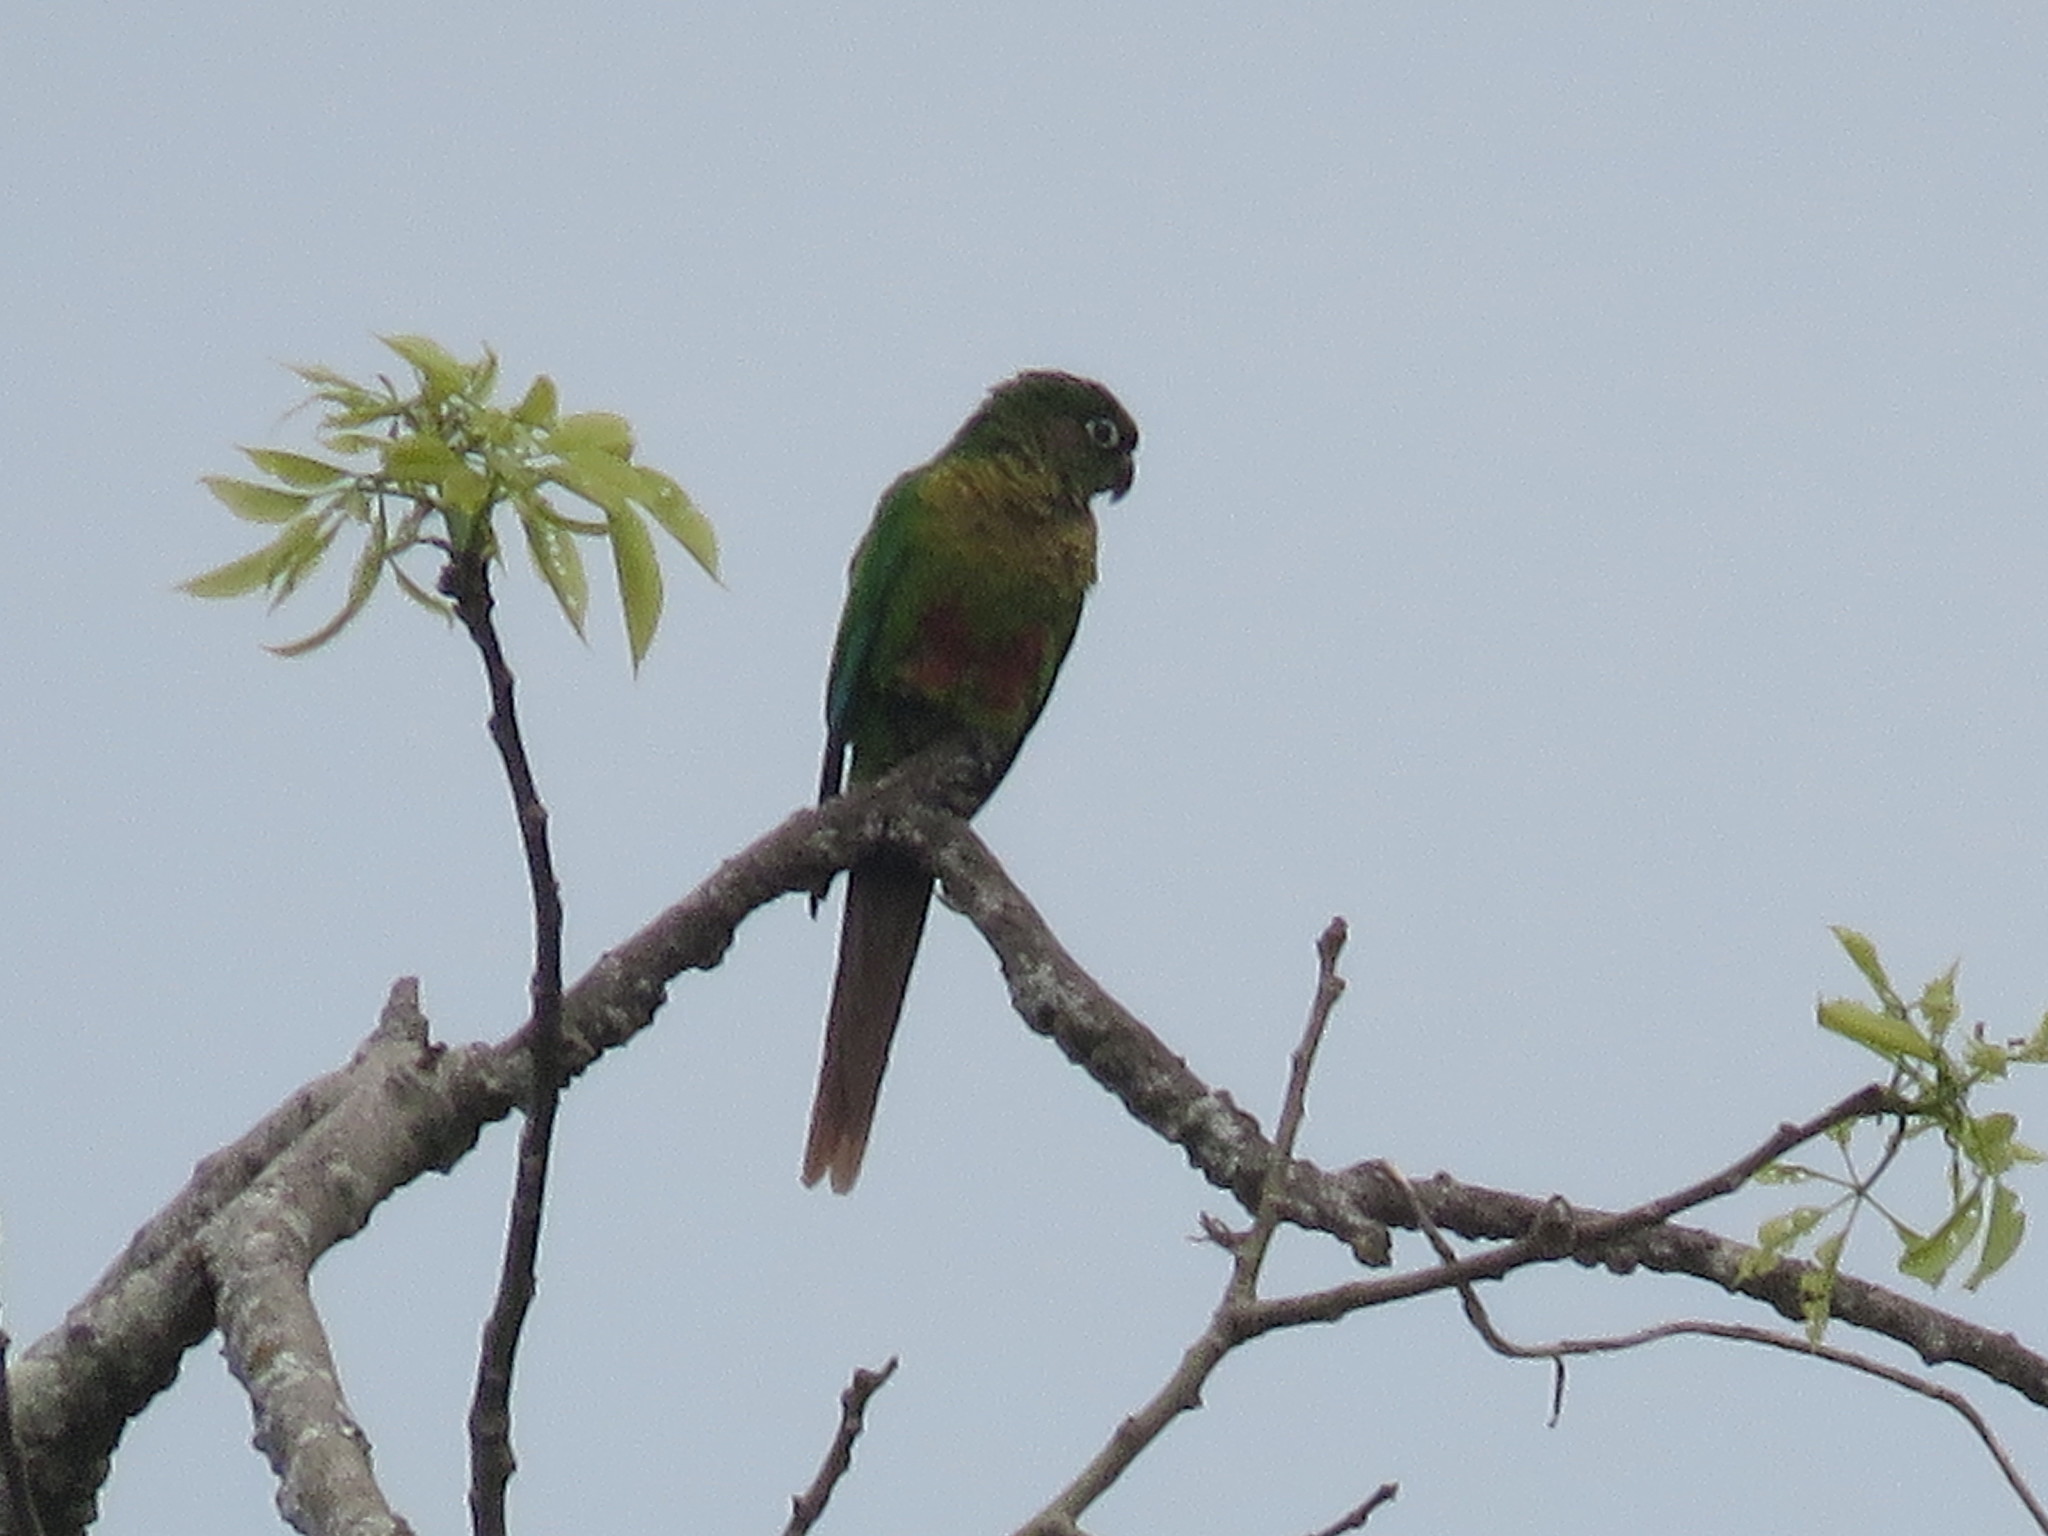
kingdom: Animalia
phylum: Chordata
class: Aves
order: Psittaciformes
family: Psittacidae
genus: Pyrrhura
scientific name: Pyrrhura frontalis
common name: Maroon-bellied parakeet
